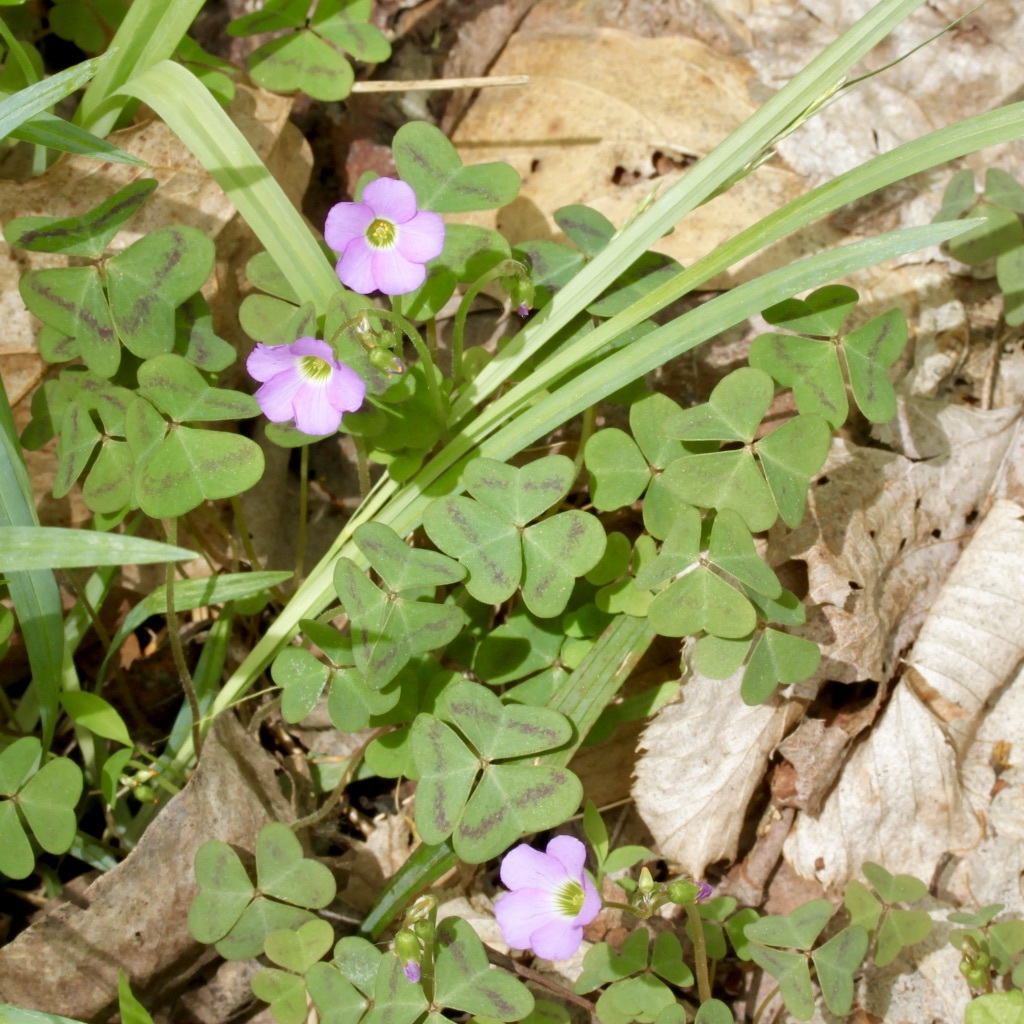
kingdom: Plantae
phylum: Tracheophyta
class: Magnoliopsida
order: Oxalidales
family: Oxalidaceae
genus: Oxalis
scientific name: Oxalis violacea
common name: Violet wood-sorrel
